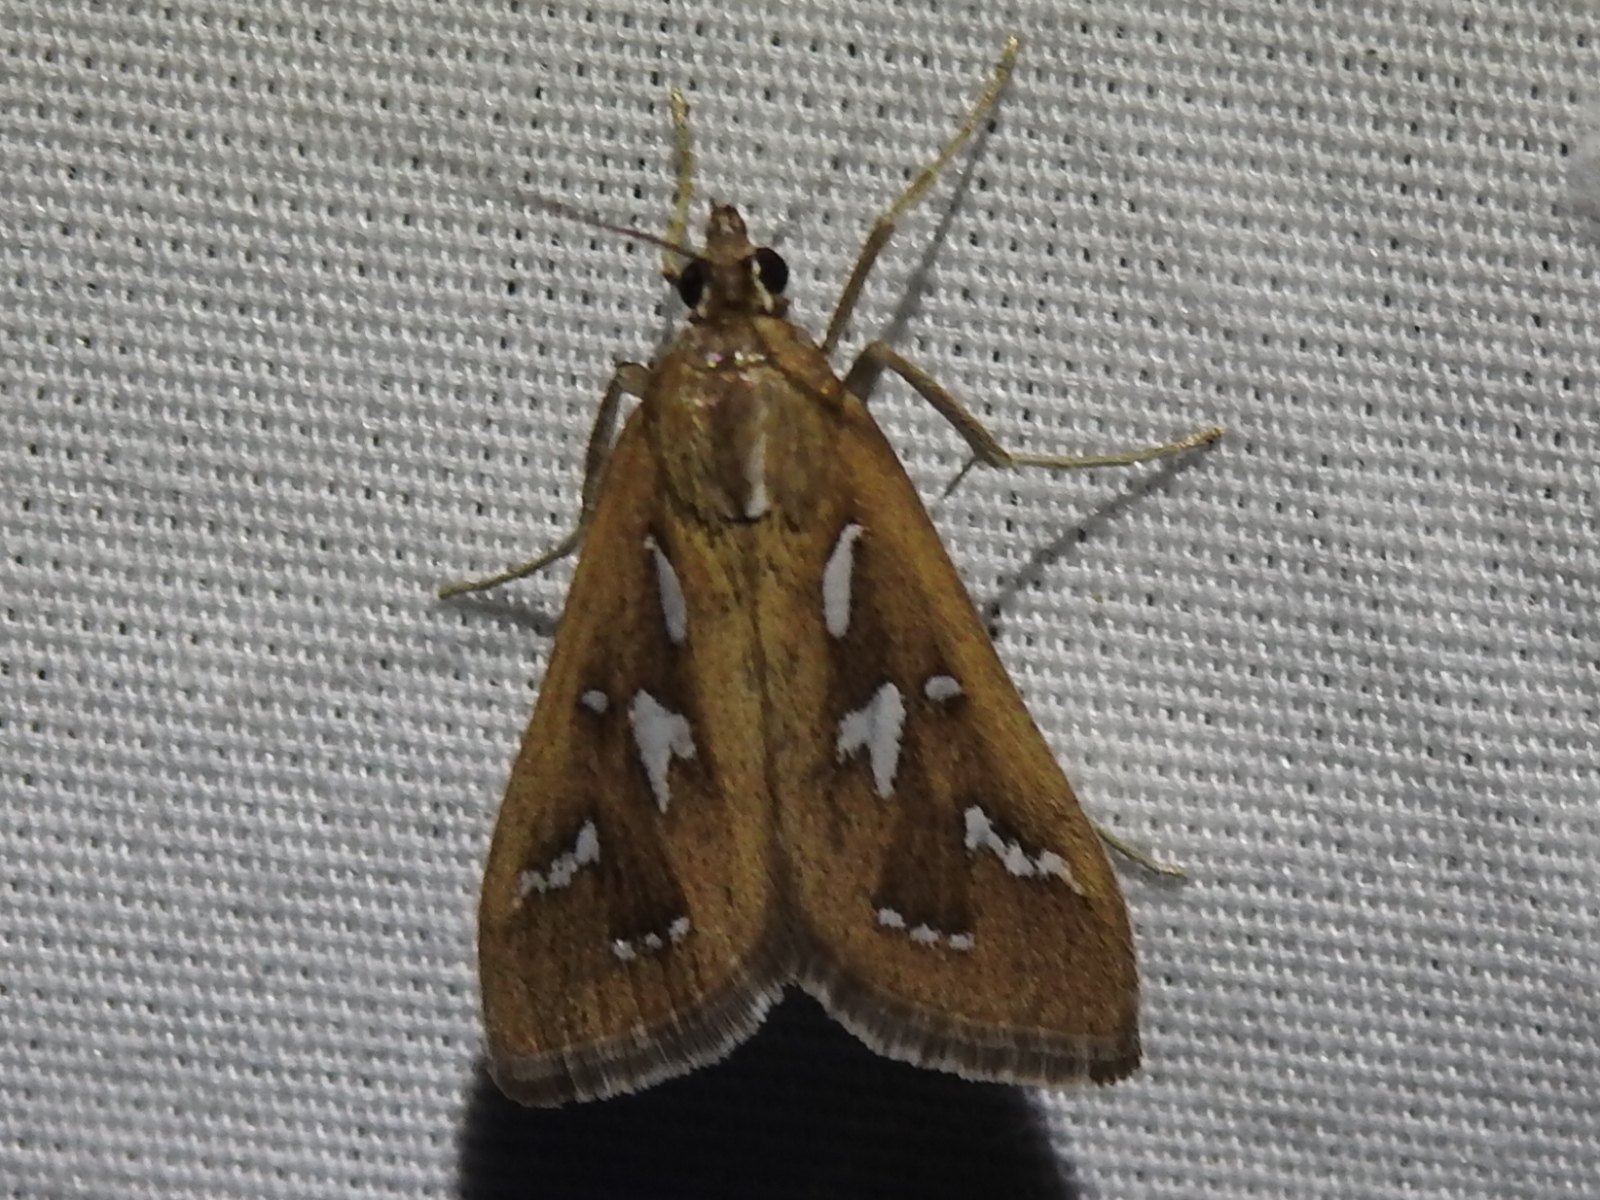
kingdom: Animalia
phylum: Arthropoda
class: Insecta
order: Lepidoptera
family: Crambidae
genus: Diastictis
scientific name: Diastictis fracturalis
